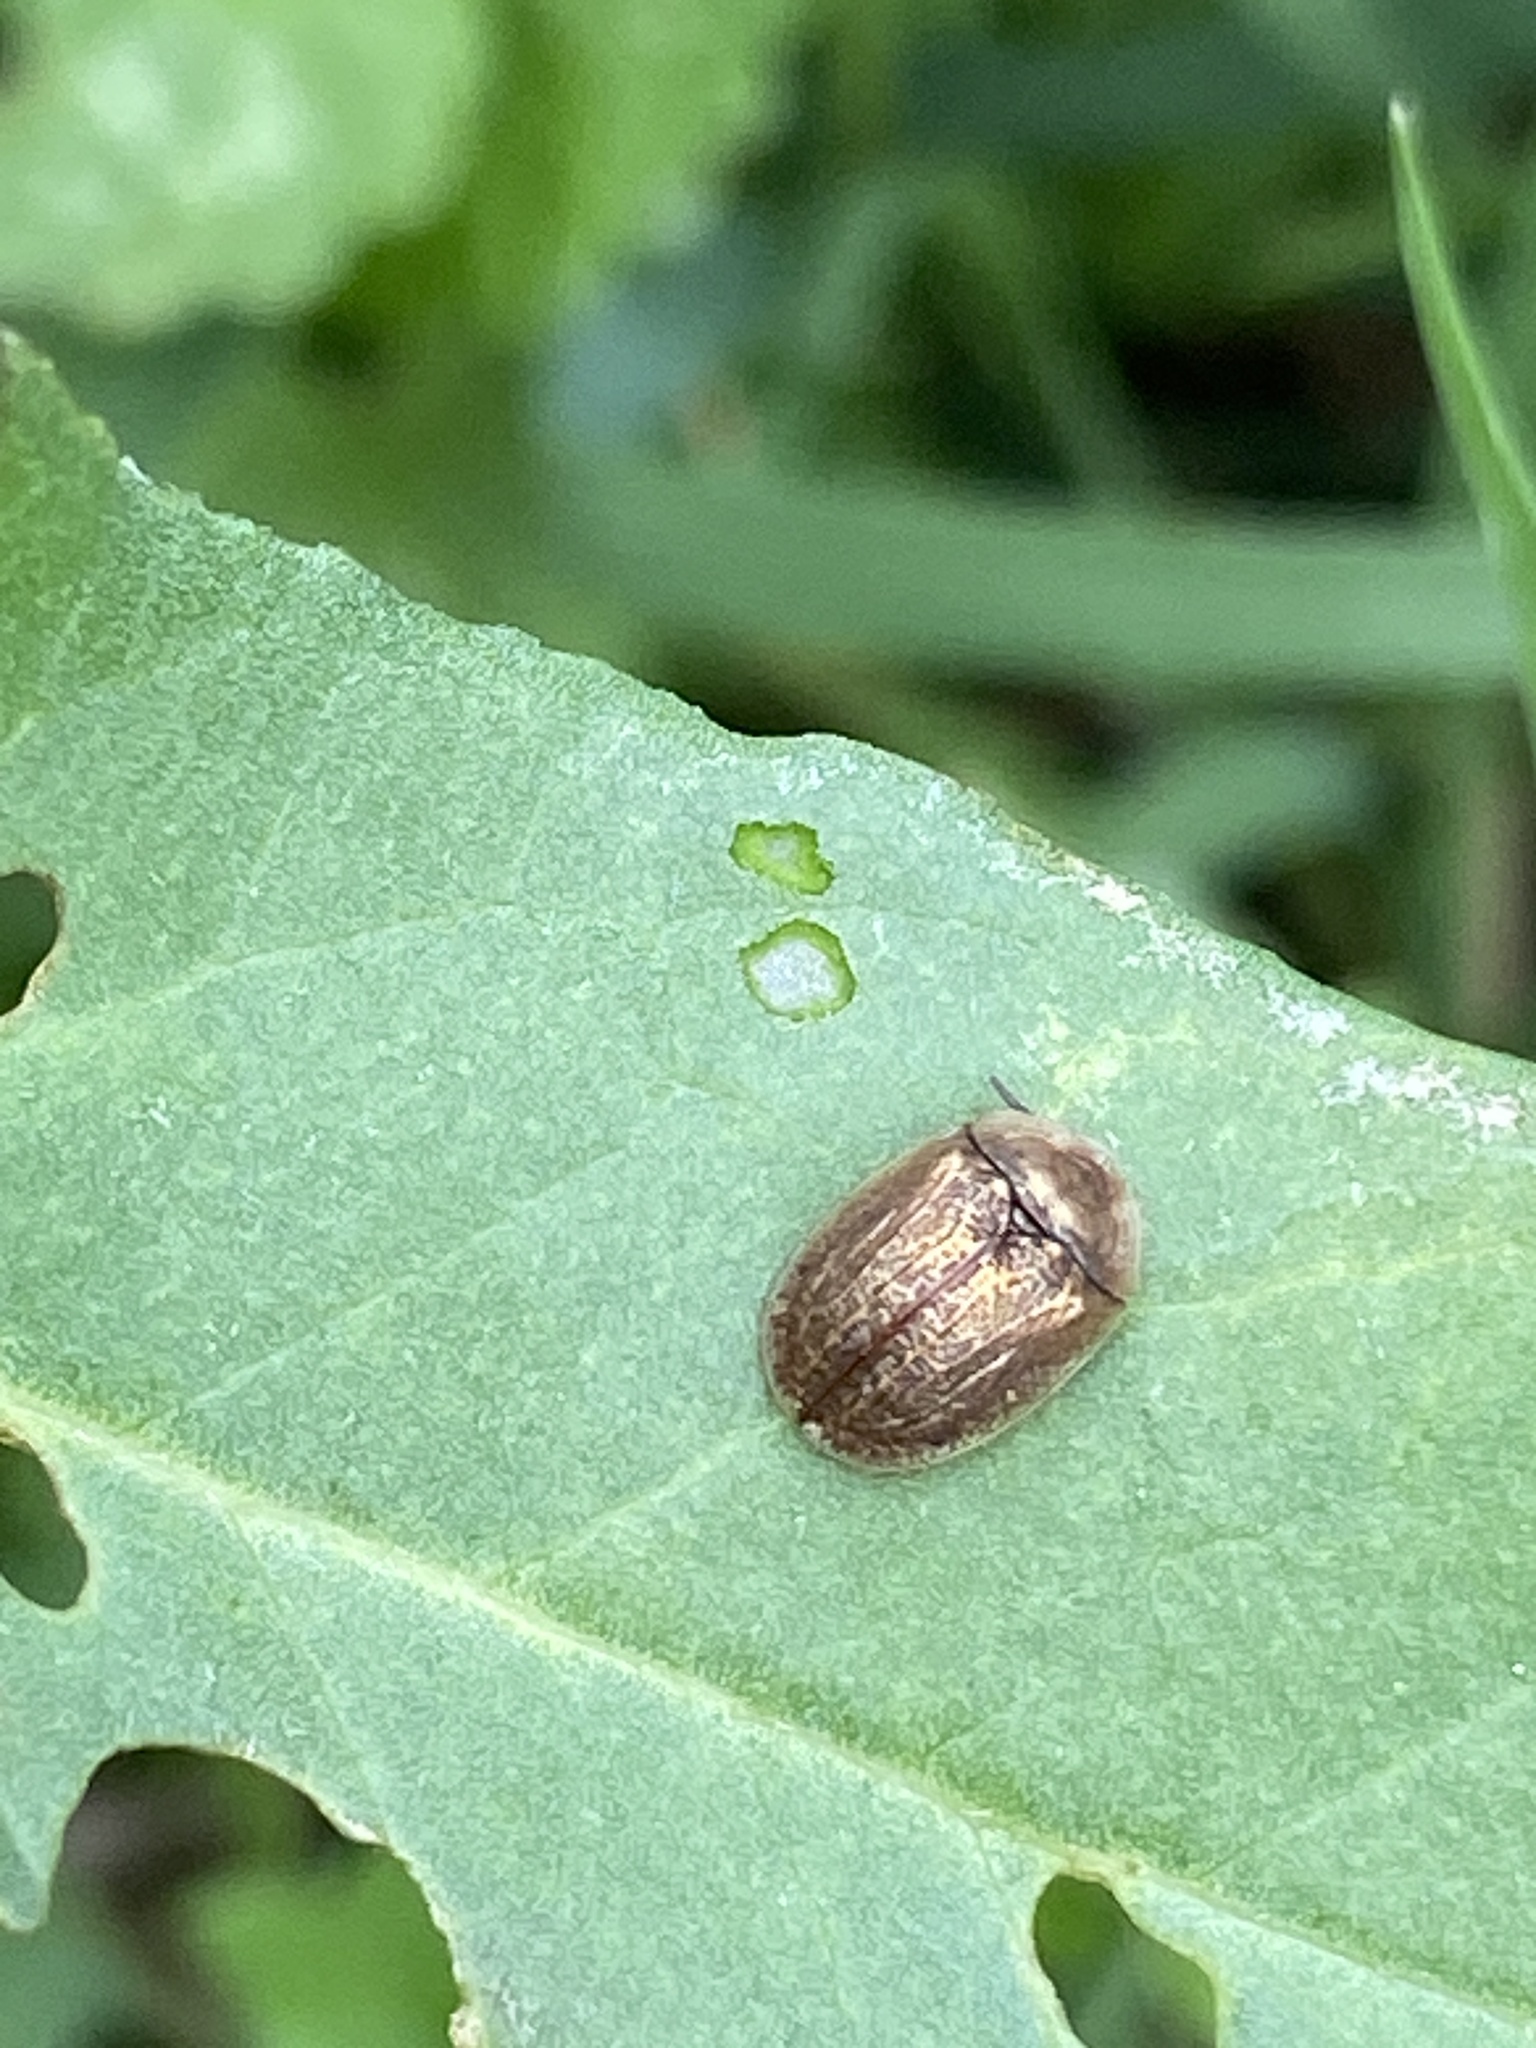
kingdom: Animalia
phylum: Arthropoda
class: Insecta
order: Coleoptera
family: Chrysomelidae
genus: Hypocassida
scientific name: Hypocassida subferruginea
